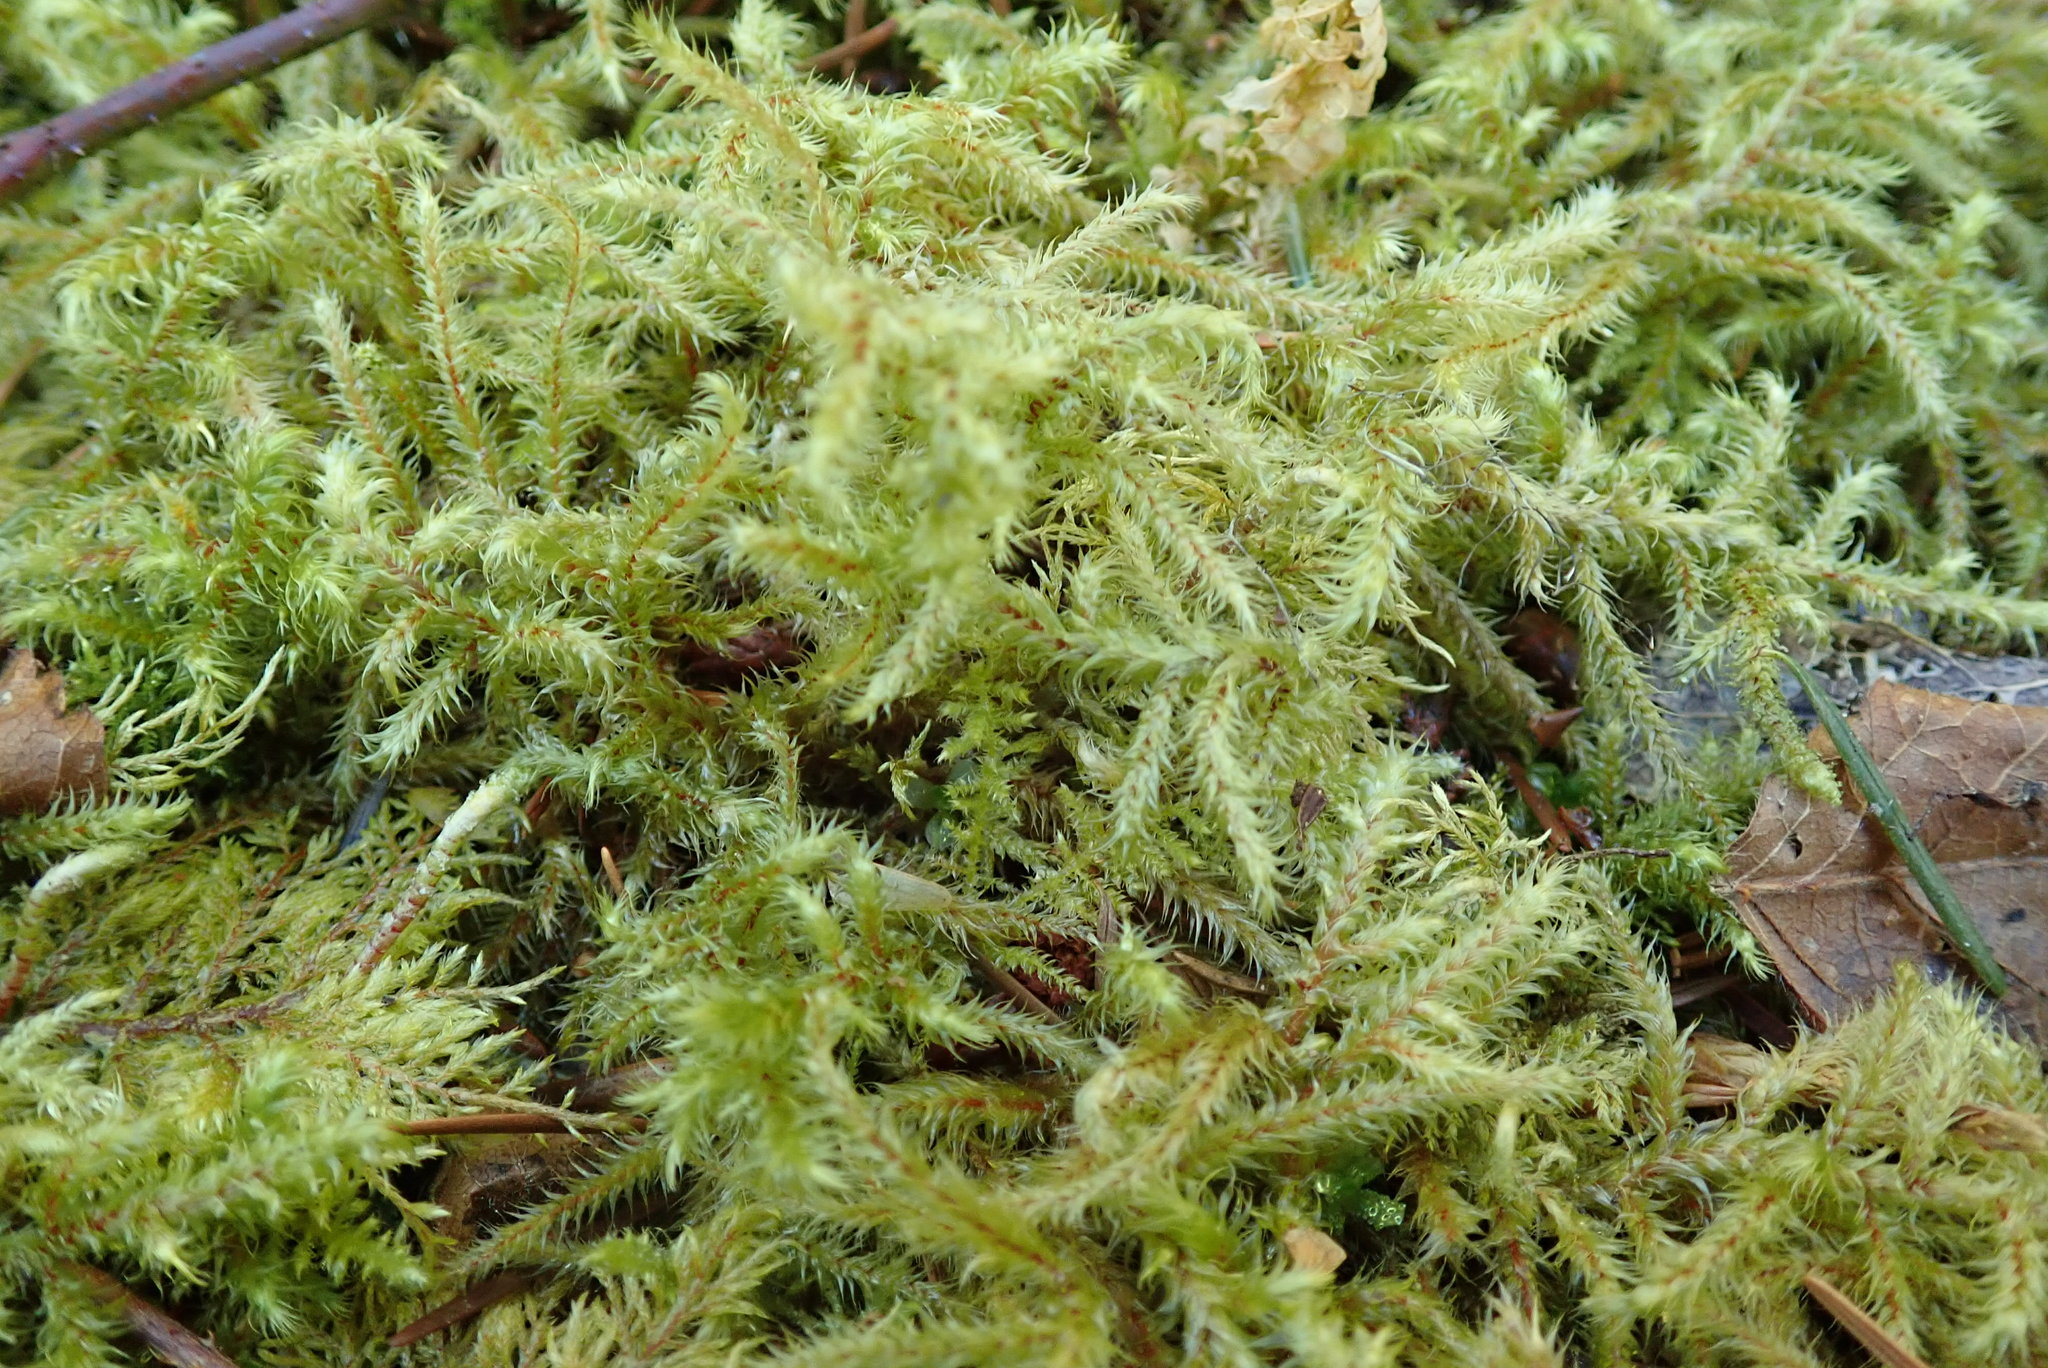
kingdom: Plantae
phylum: Bryophyta
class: Bryopsida
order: Hypnales
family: Hylocomiaceae
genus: Rhytidiadelphus
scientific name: Rhytidiadelphus loreus
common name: Lanky moss
